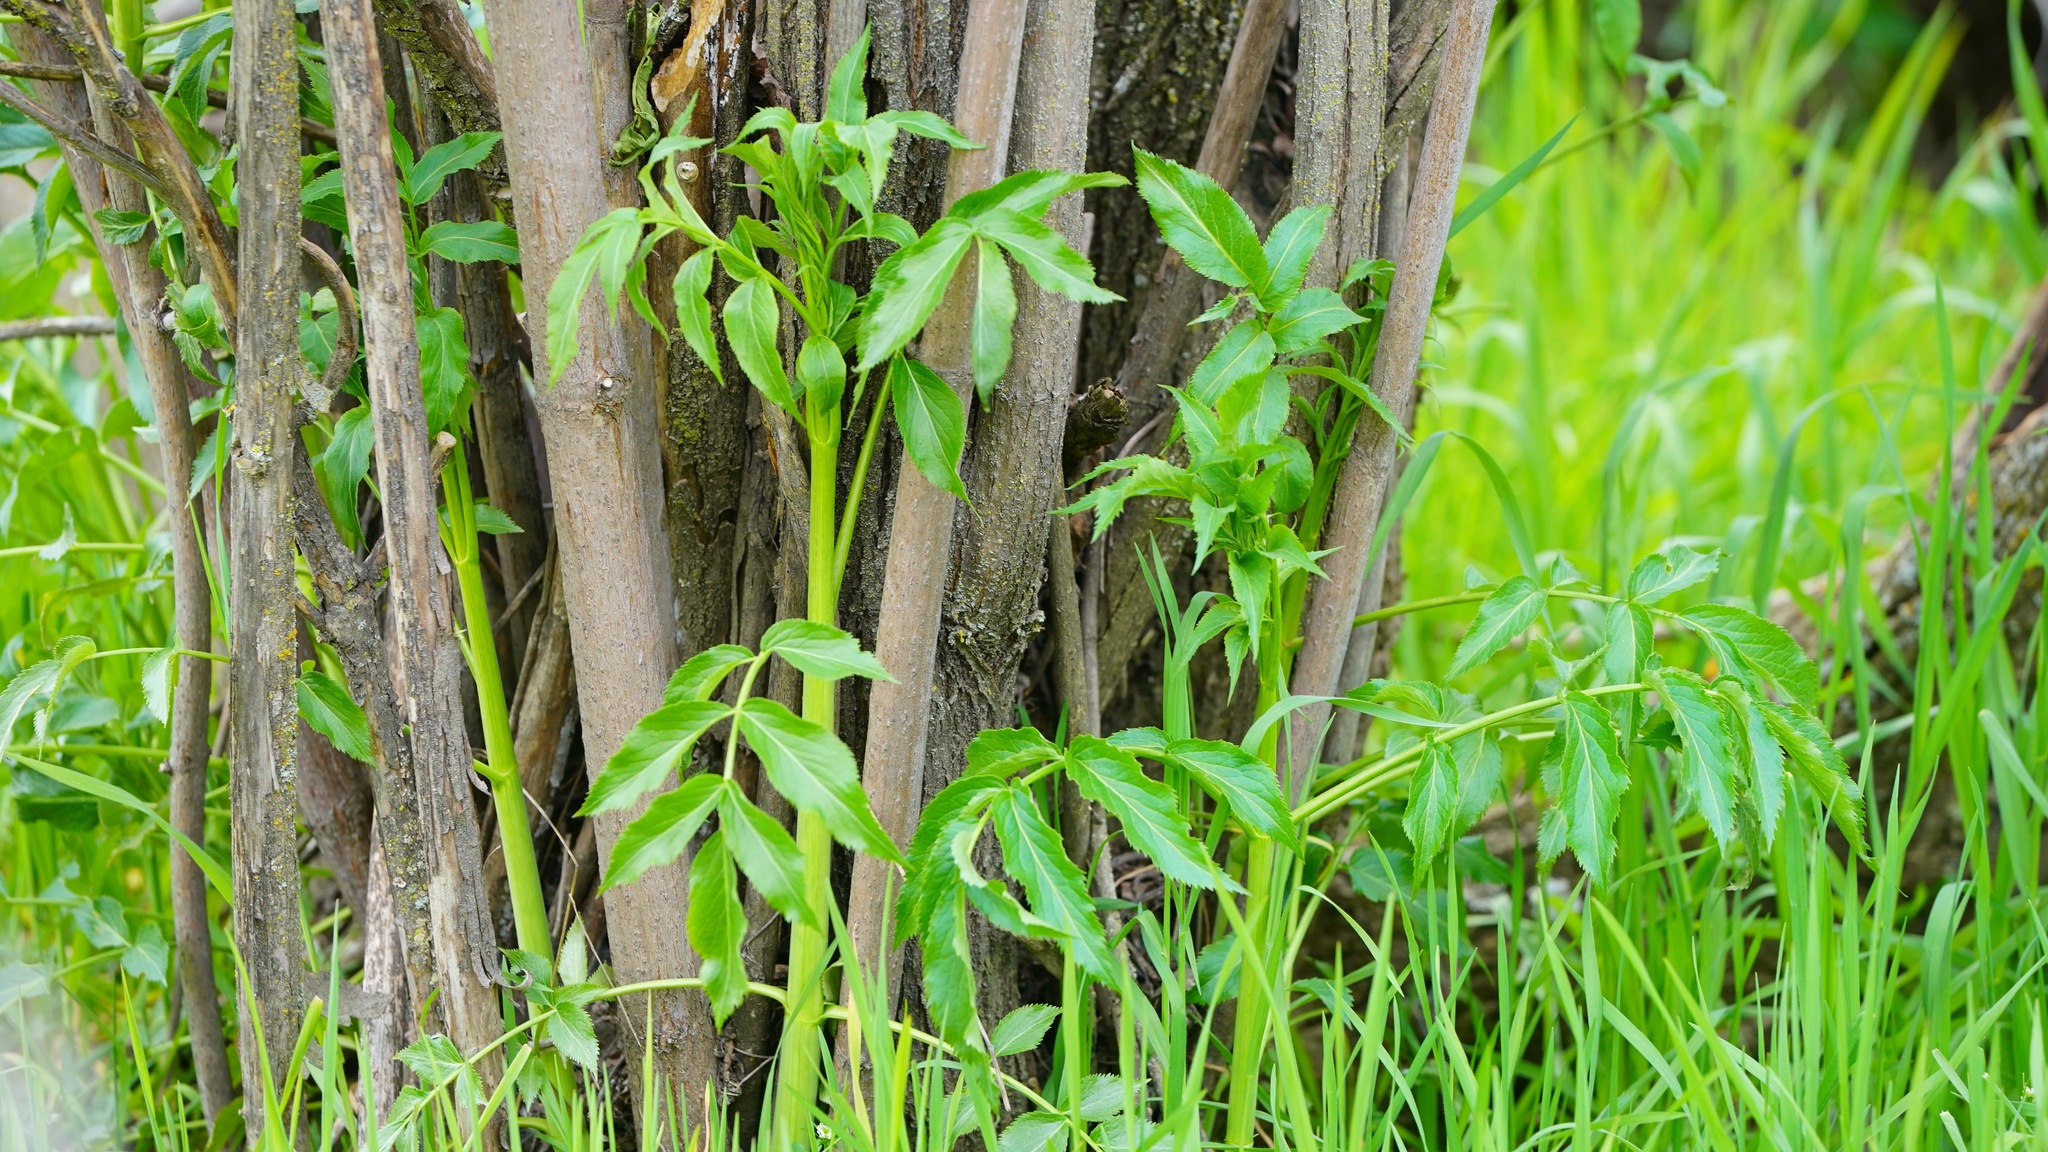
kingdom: Plantae
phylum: Tracheophyta
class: Magnoliopsida
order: Dipsacales
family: Viburnaceae
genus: Sambucus
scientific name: Sambucus cerulea
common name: Blue elder
